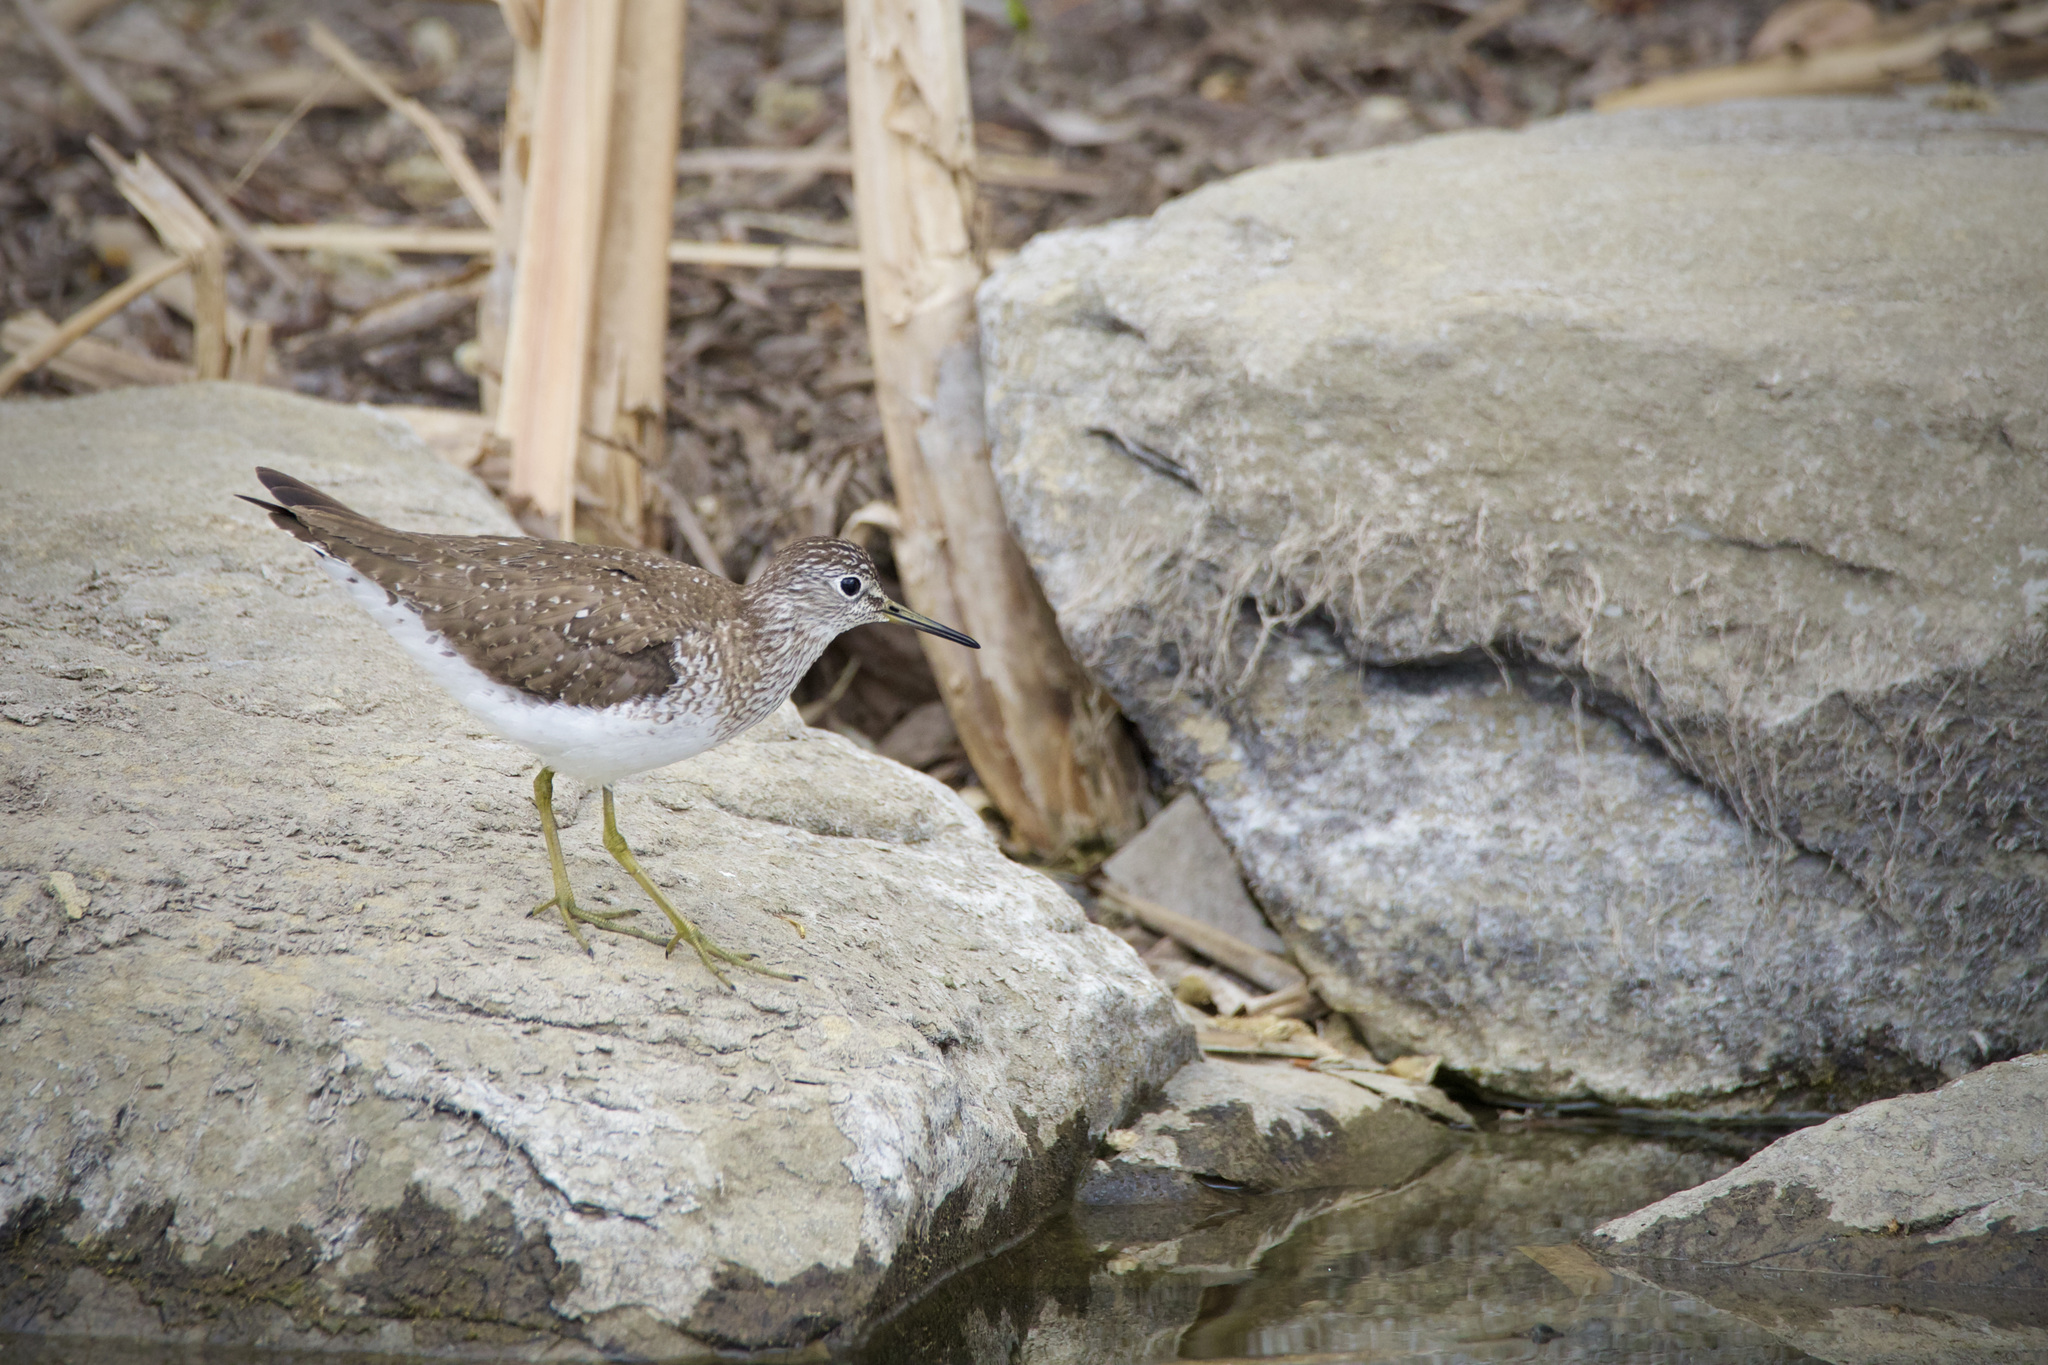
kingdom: Animalia
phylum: Chordata
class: Aves
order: Charadriiformes
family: Scolopacidae
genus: Tringa
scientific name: Tringa solitaria
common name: Solitary sandpiper
